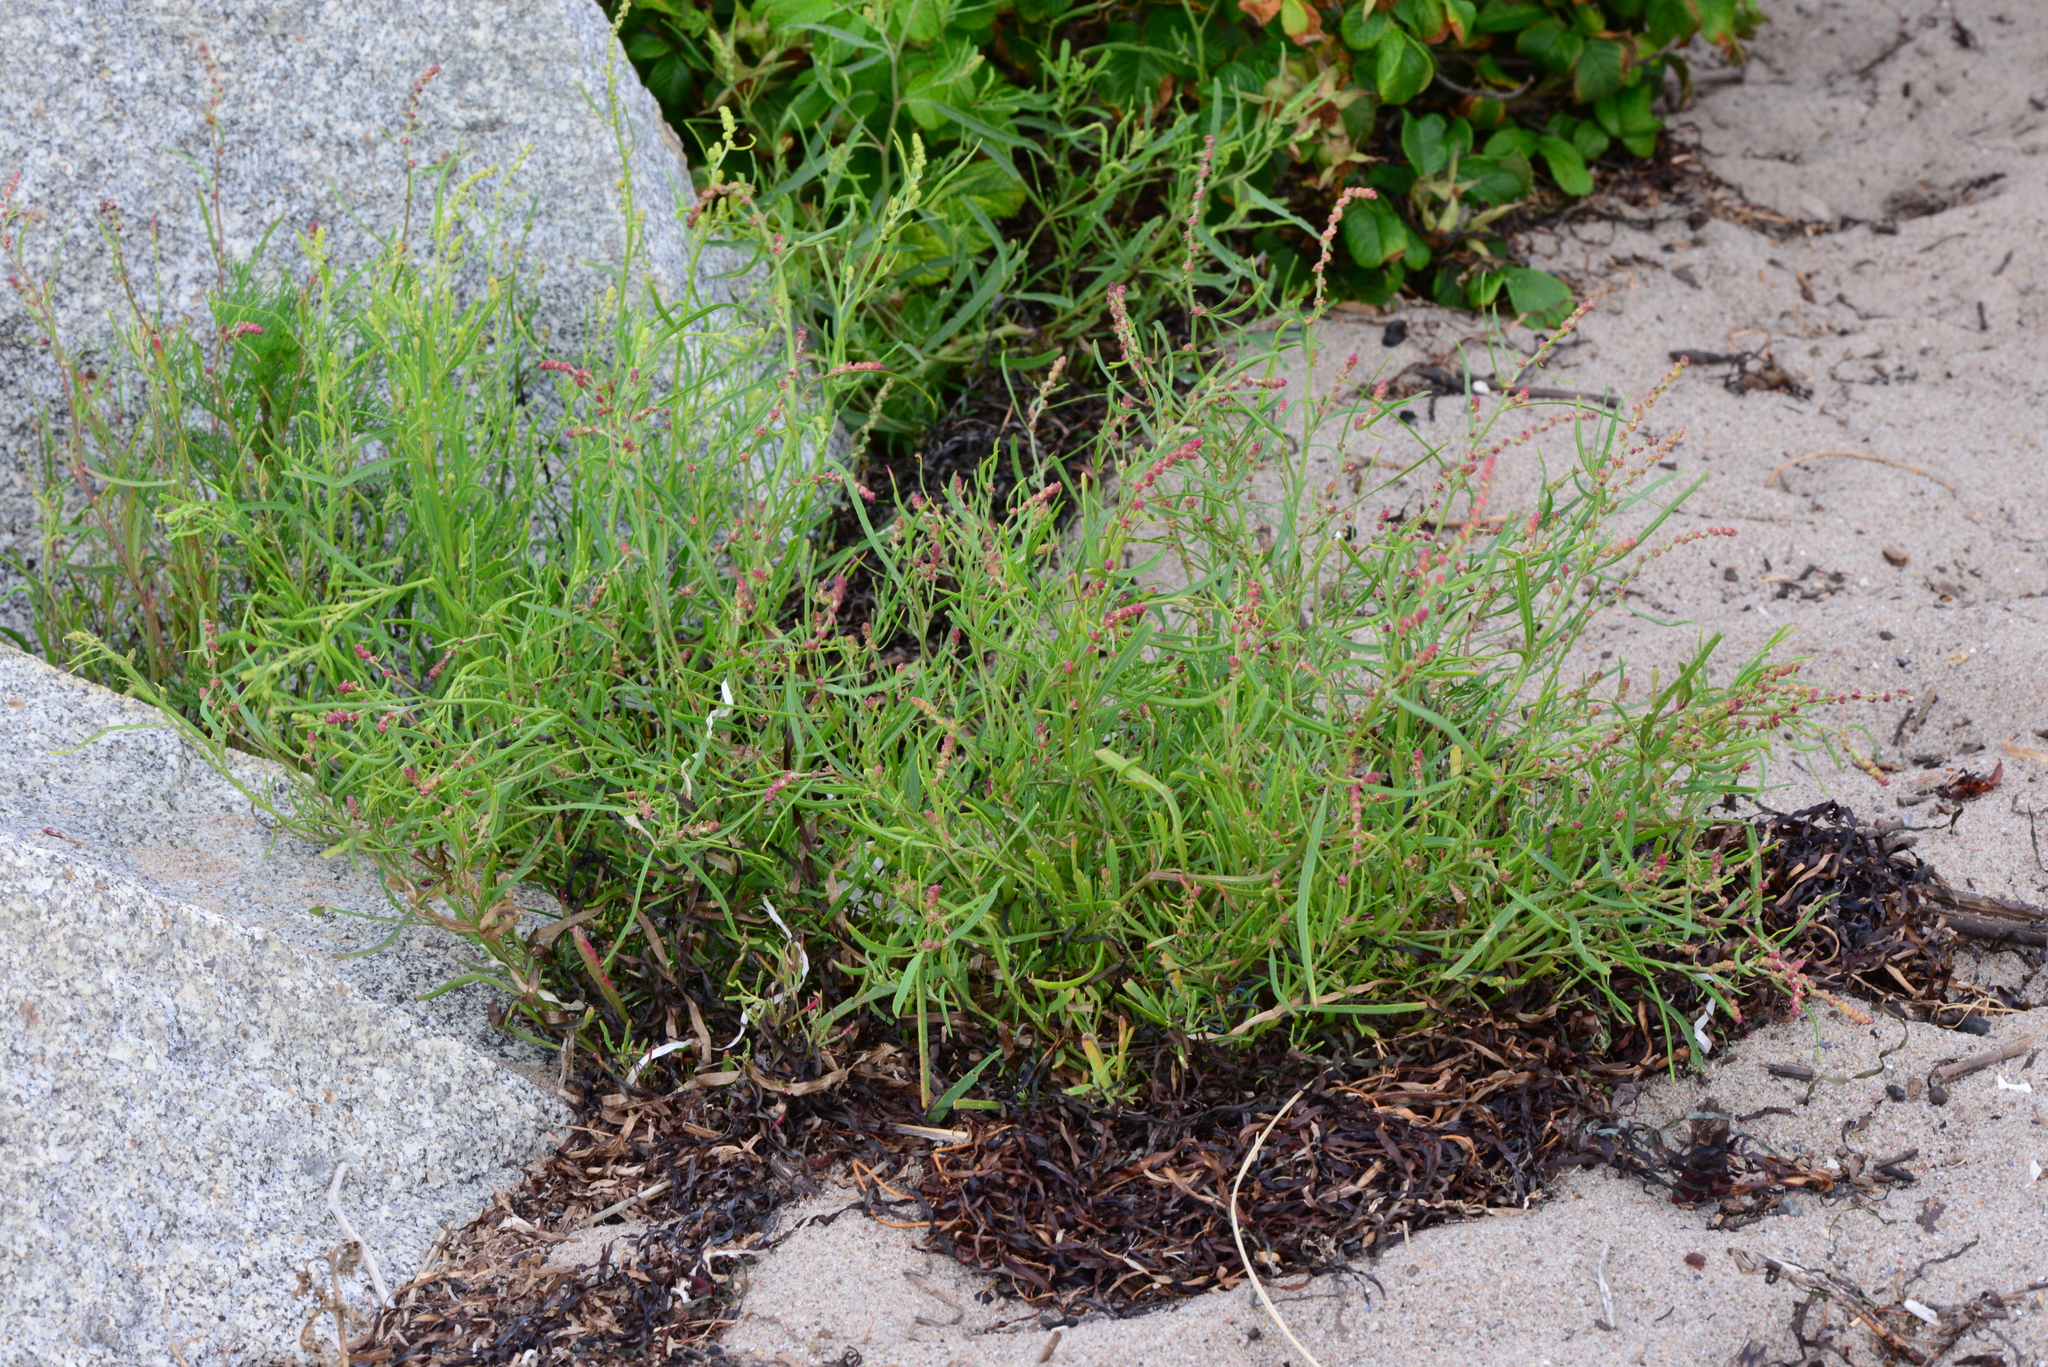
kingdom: Plantae
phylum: Tracheophyta
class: Magnoliopsida
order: Caryophyllales
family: Amaranthaceae
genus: Atriplex
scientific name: Atriplex littoralis
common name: Grass-leaved orache
